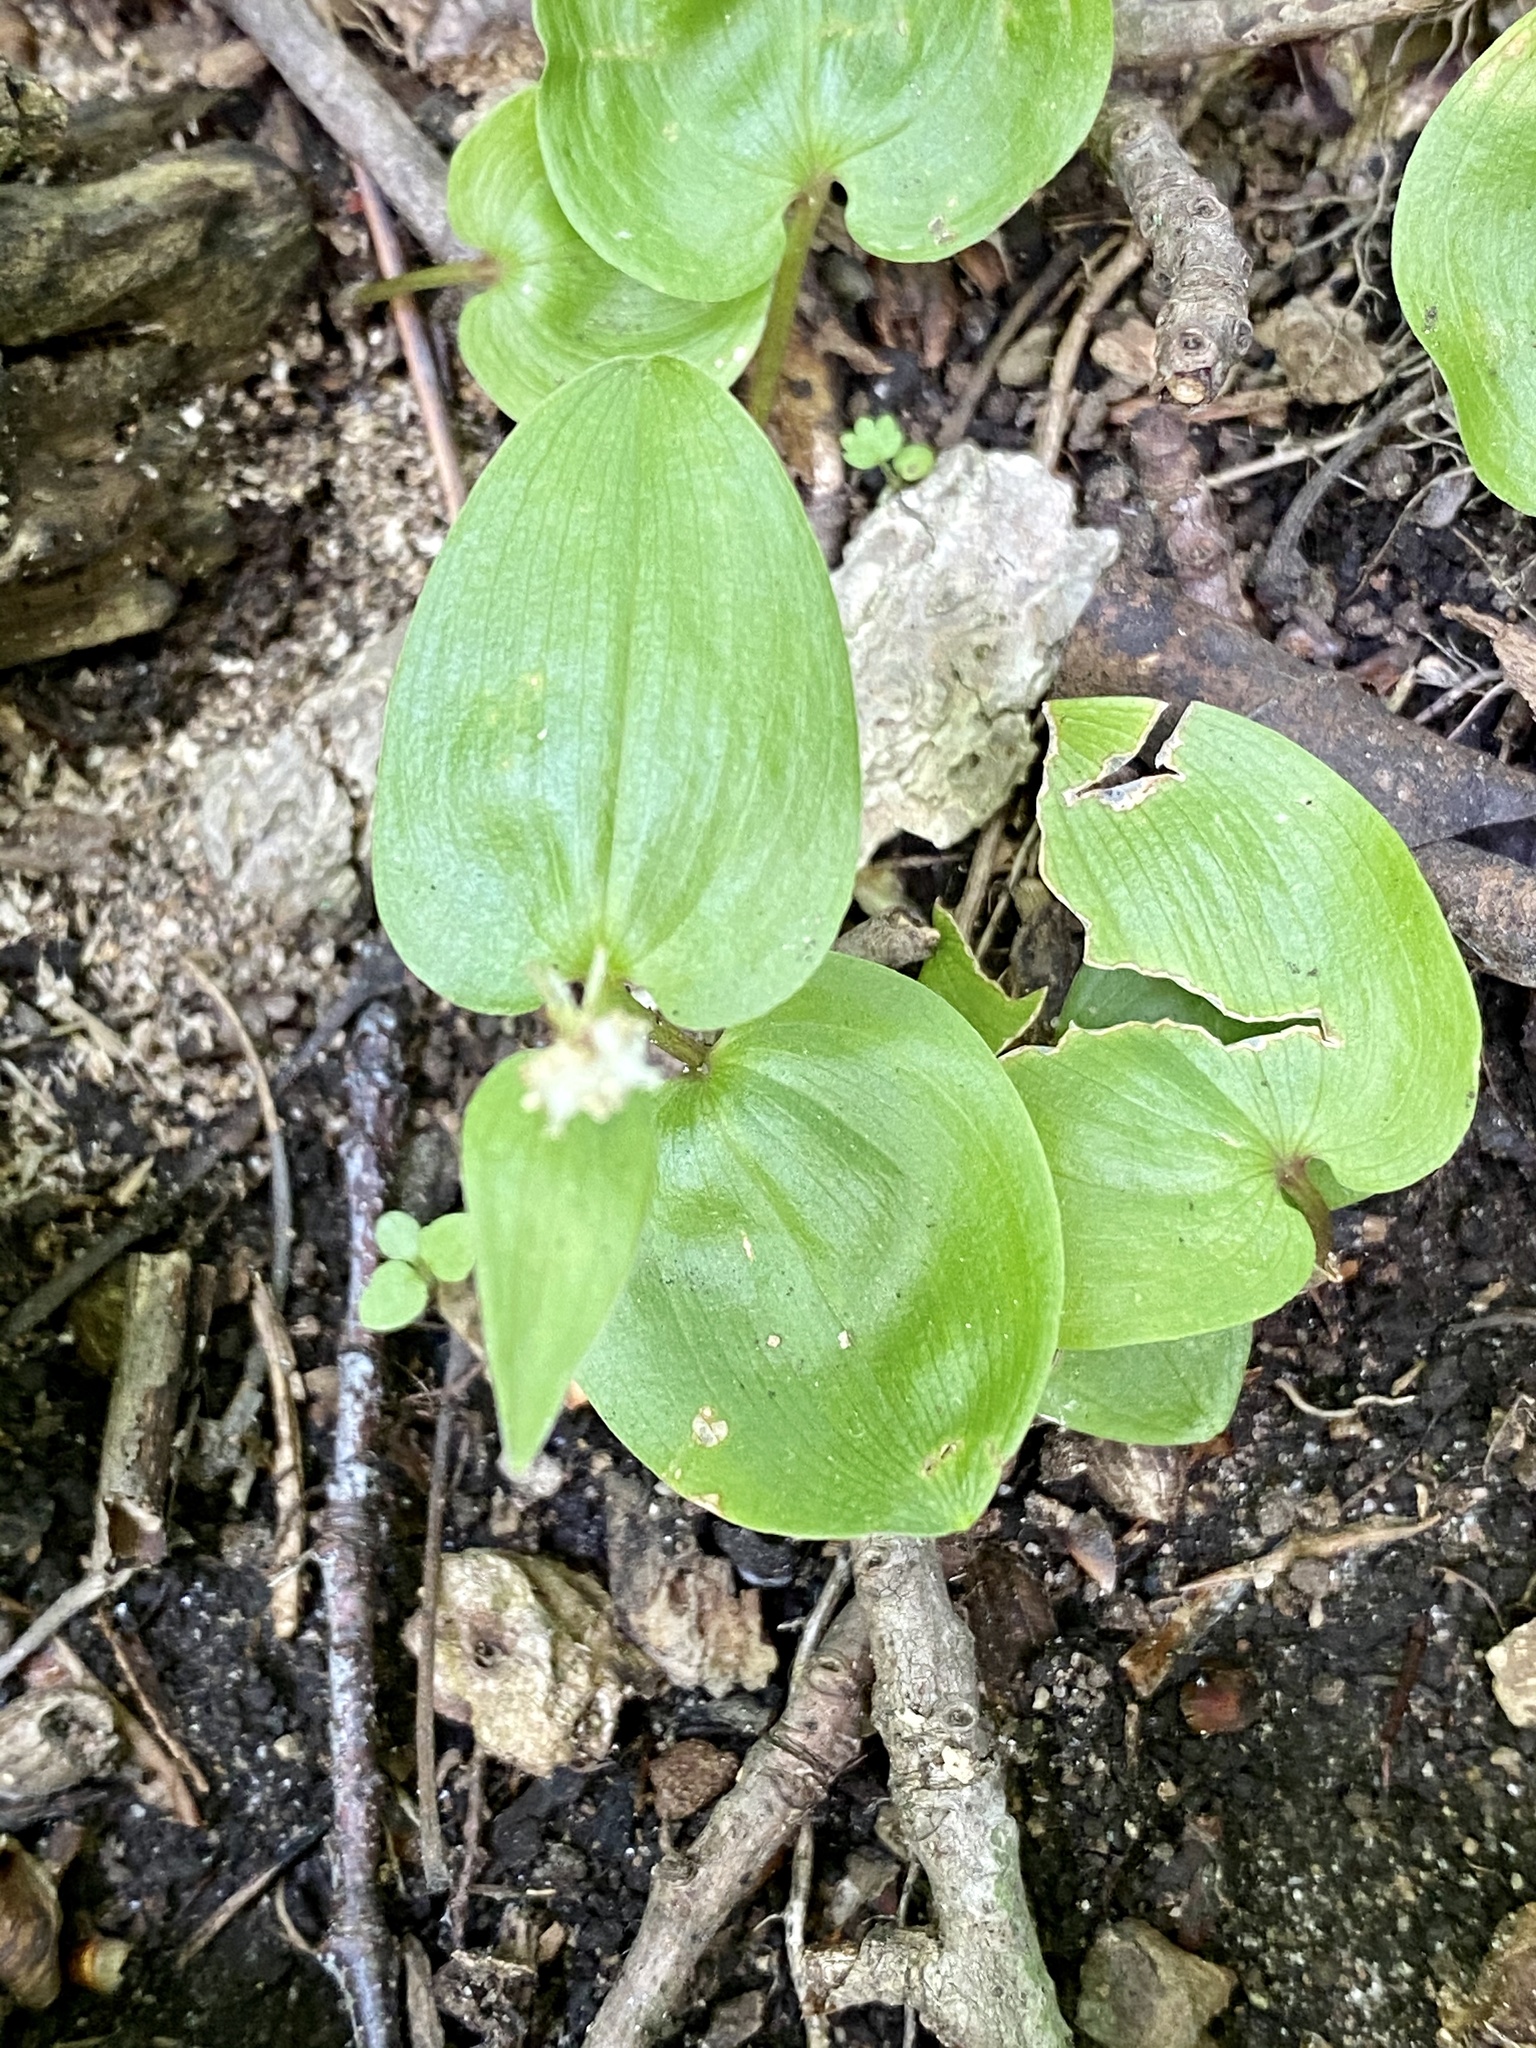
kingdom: Plantae
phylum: Tracheophyta
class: Liliopsida
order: Asparagales
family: Asparagaceae
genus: Maianthemum
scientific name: Maianthemum canadense
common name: False lily-of-the-valley
